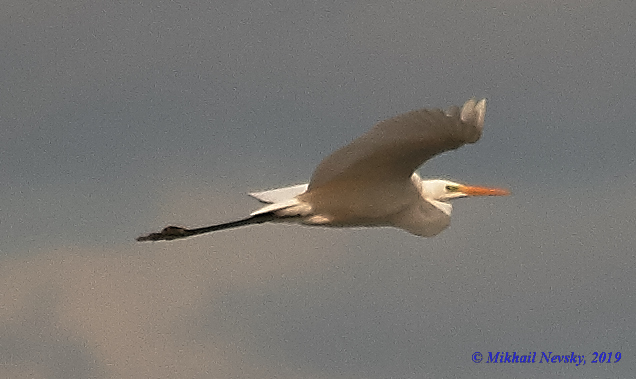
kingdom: Animalia
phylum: Chordata
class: Aves
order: Pelecaniformes
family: Ardeidae
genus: Ardea
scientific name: Ardea alba
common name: Great egret
